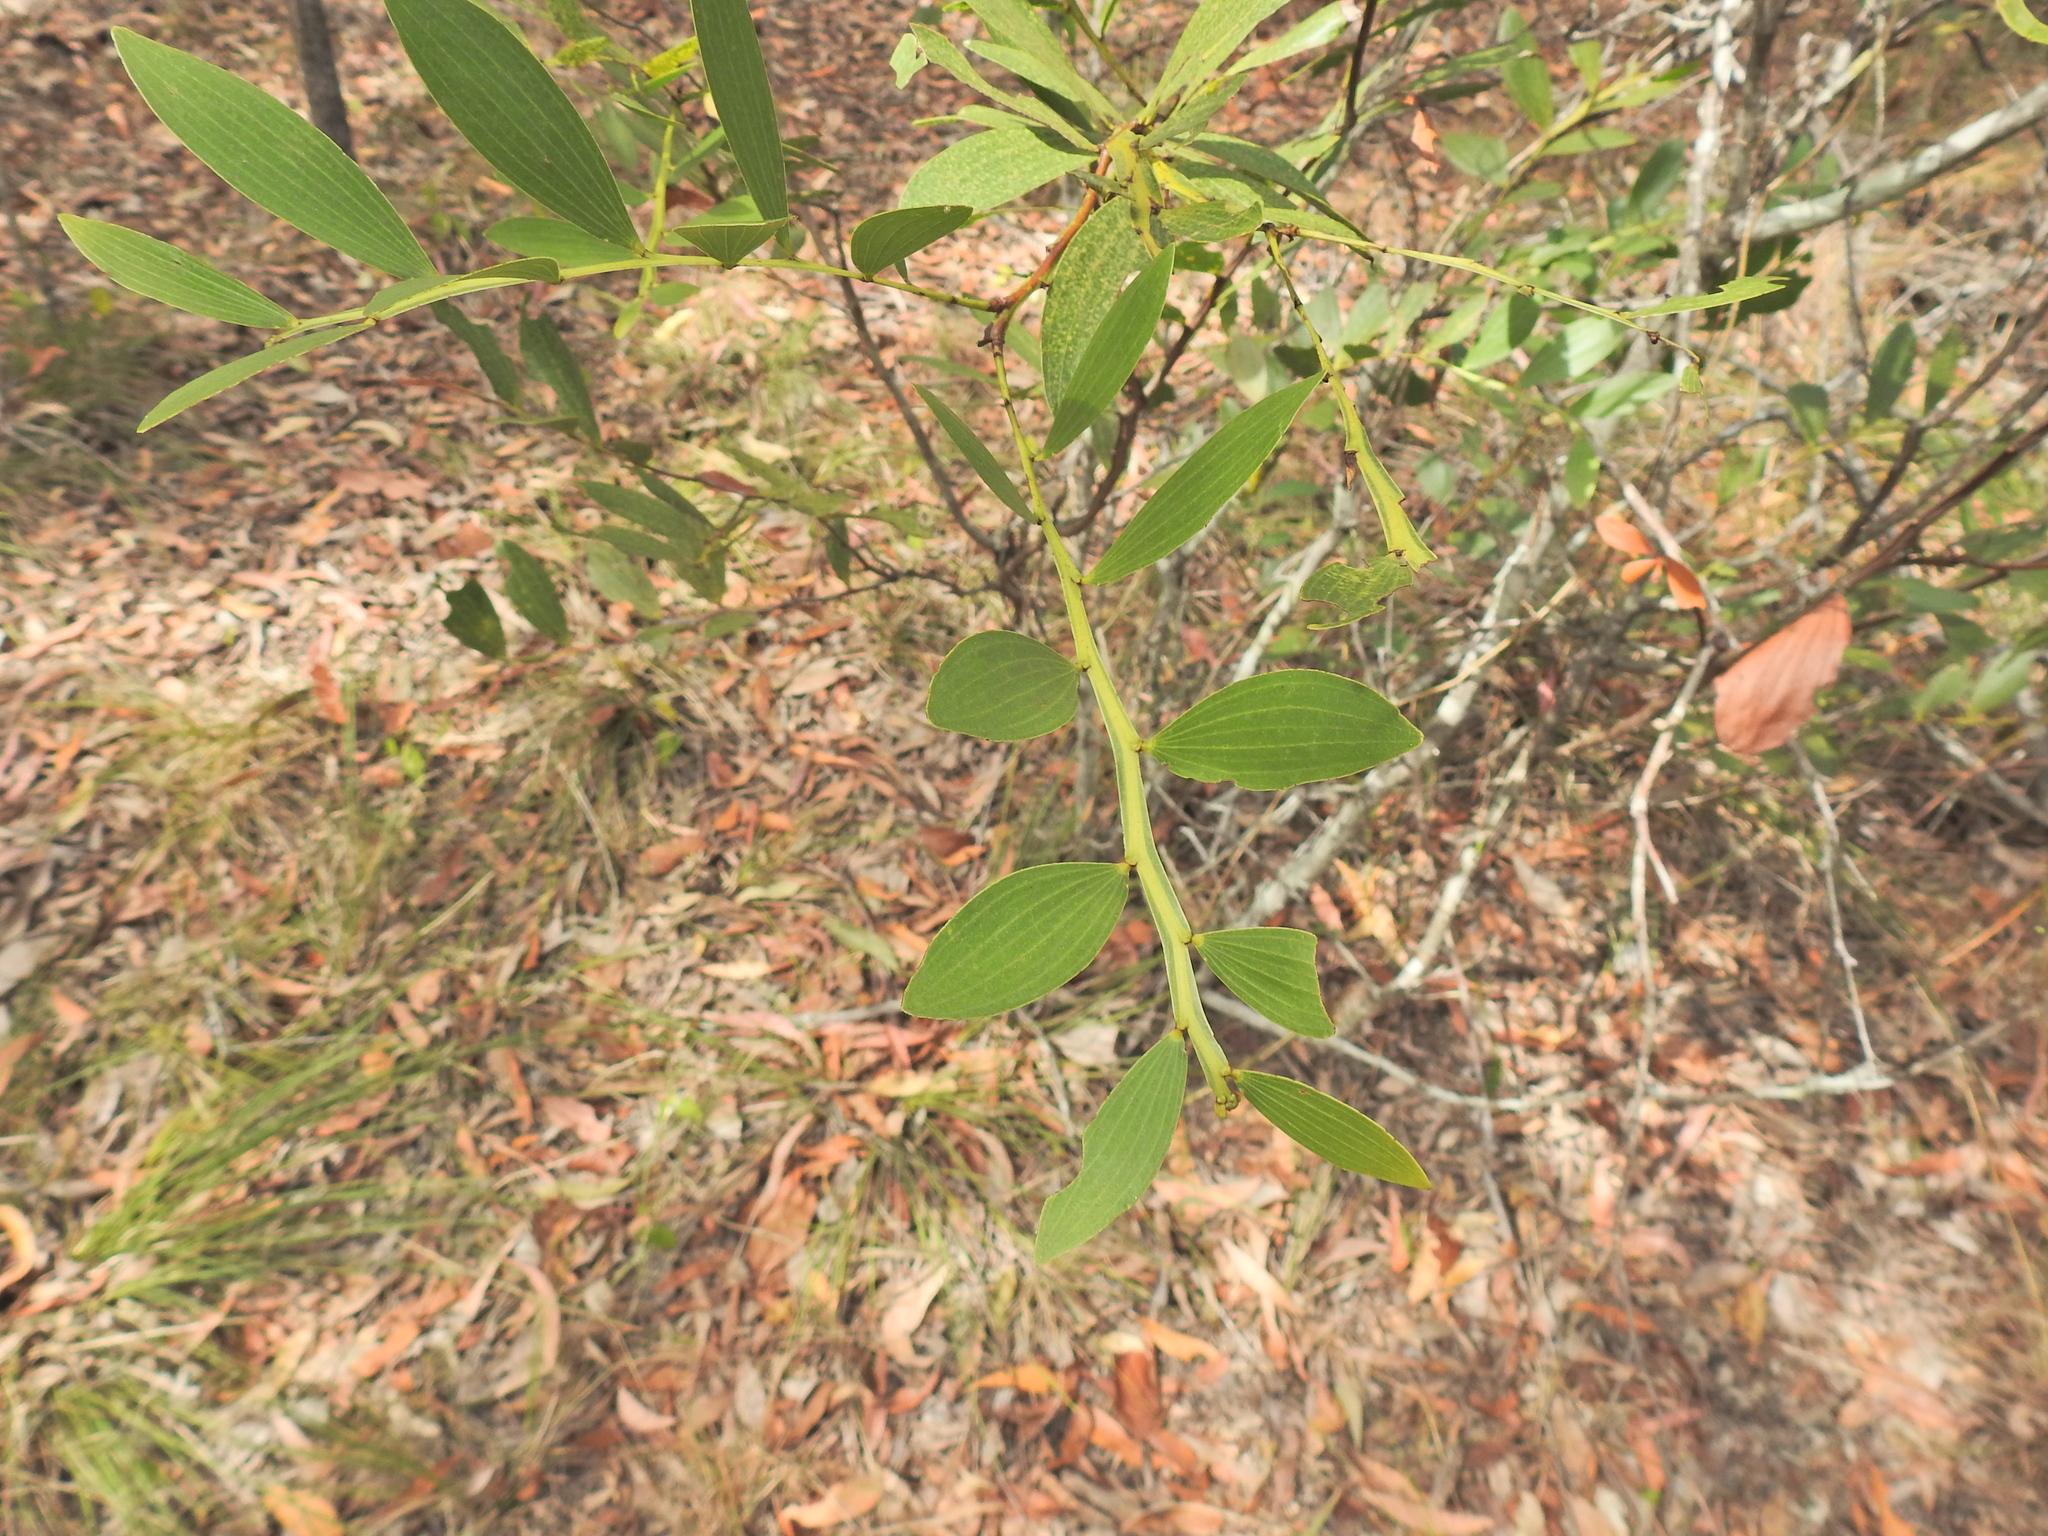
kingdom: Plantae
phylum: Tracheophyta
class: Magnoliopsida
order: Fabales
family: Fabaceae
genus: Acacia
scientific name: Acacia complanata
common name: Flat-stemmed wattle
